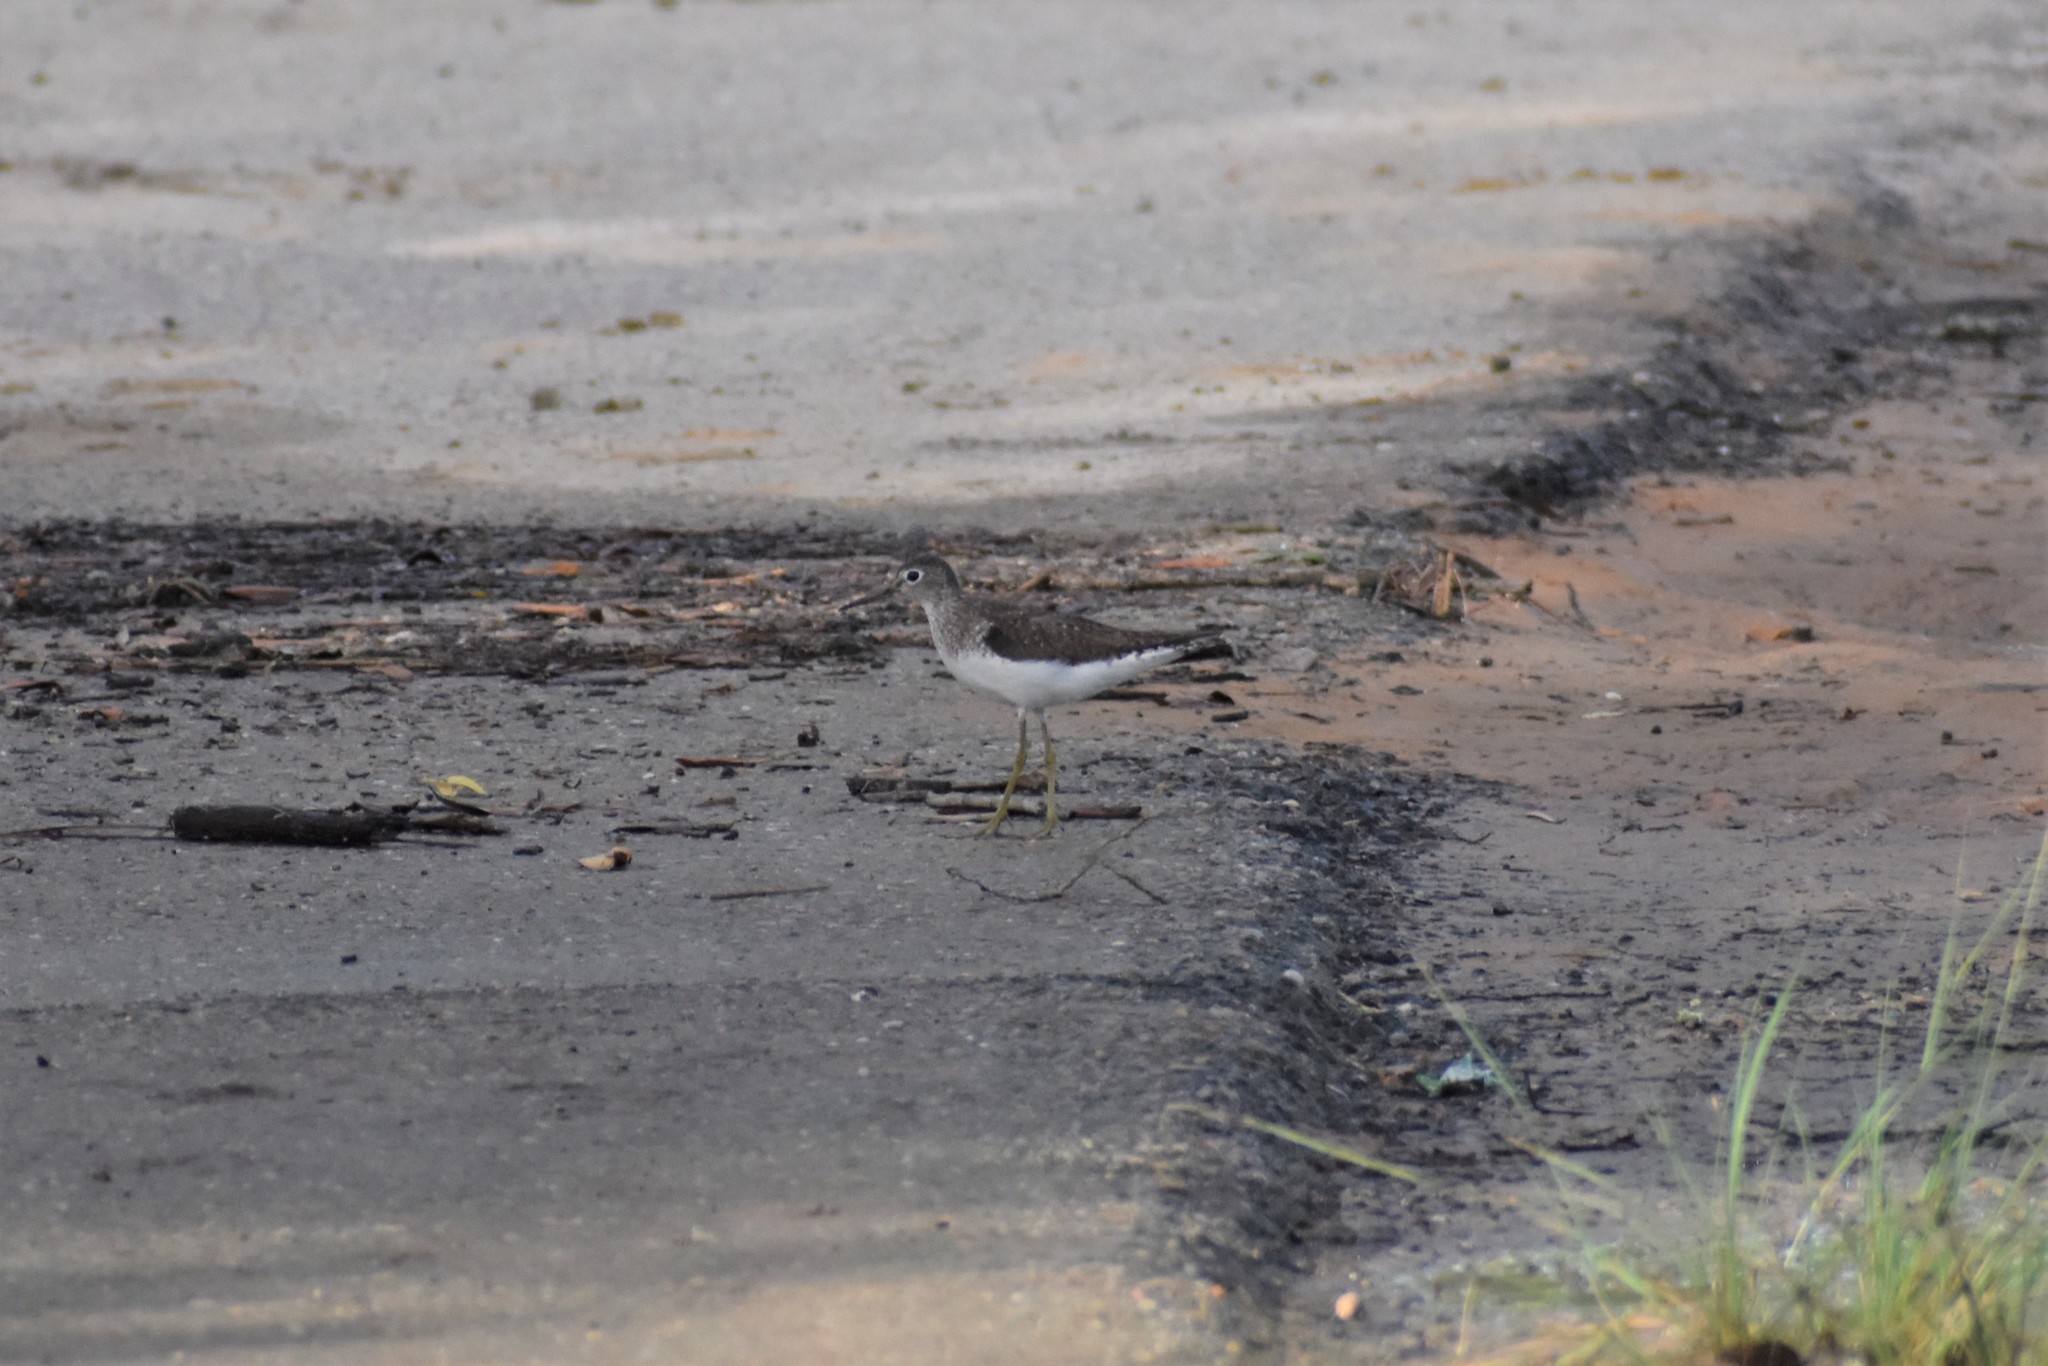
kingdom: Animalia
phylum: Chordata
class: Aves
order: Charadriiformes
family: Scolopacidae
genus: Tringa
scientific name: Tringa solitaria
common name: Solitary sandpiper
